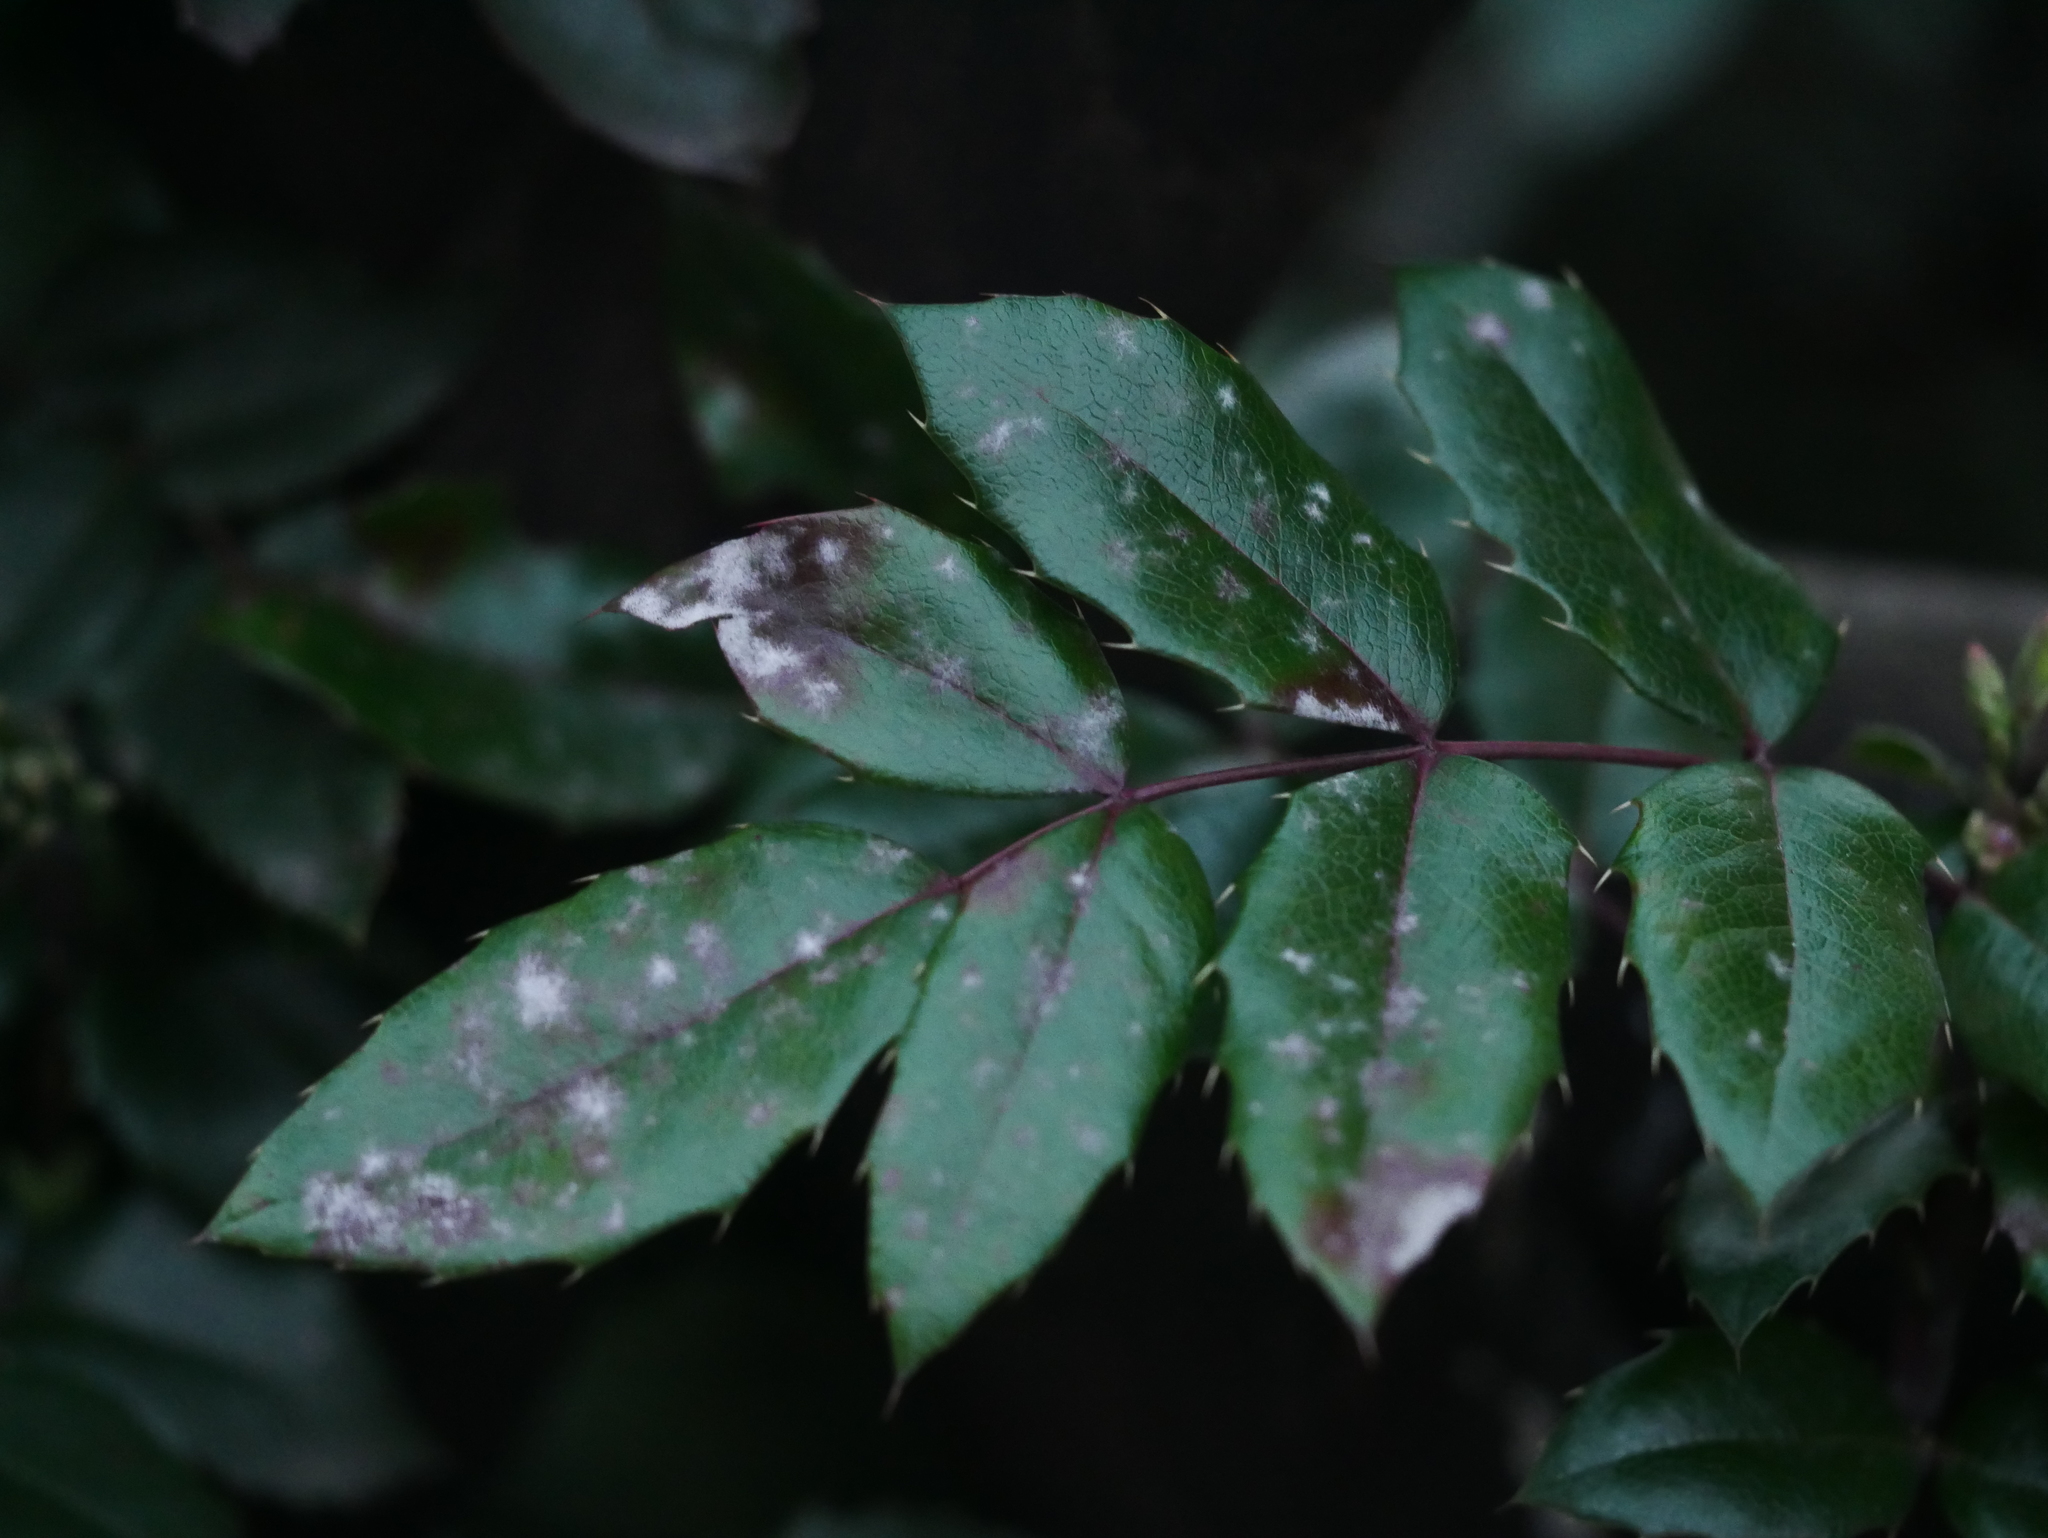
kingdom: Fungi
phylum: Ascomycota
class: Leotiomycetes
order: Helotiales
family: Erysiphaceae
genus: Erysiphe
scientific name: Erysiphe berberidis
